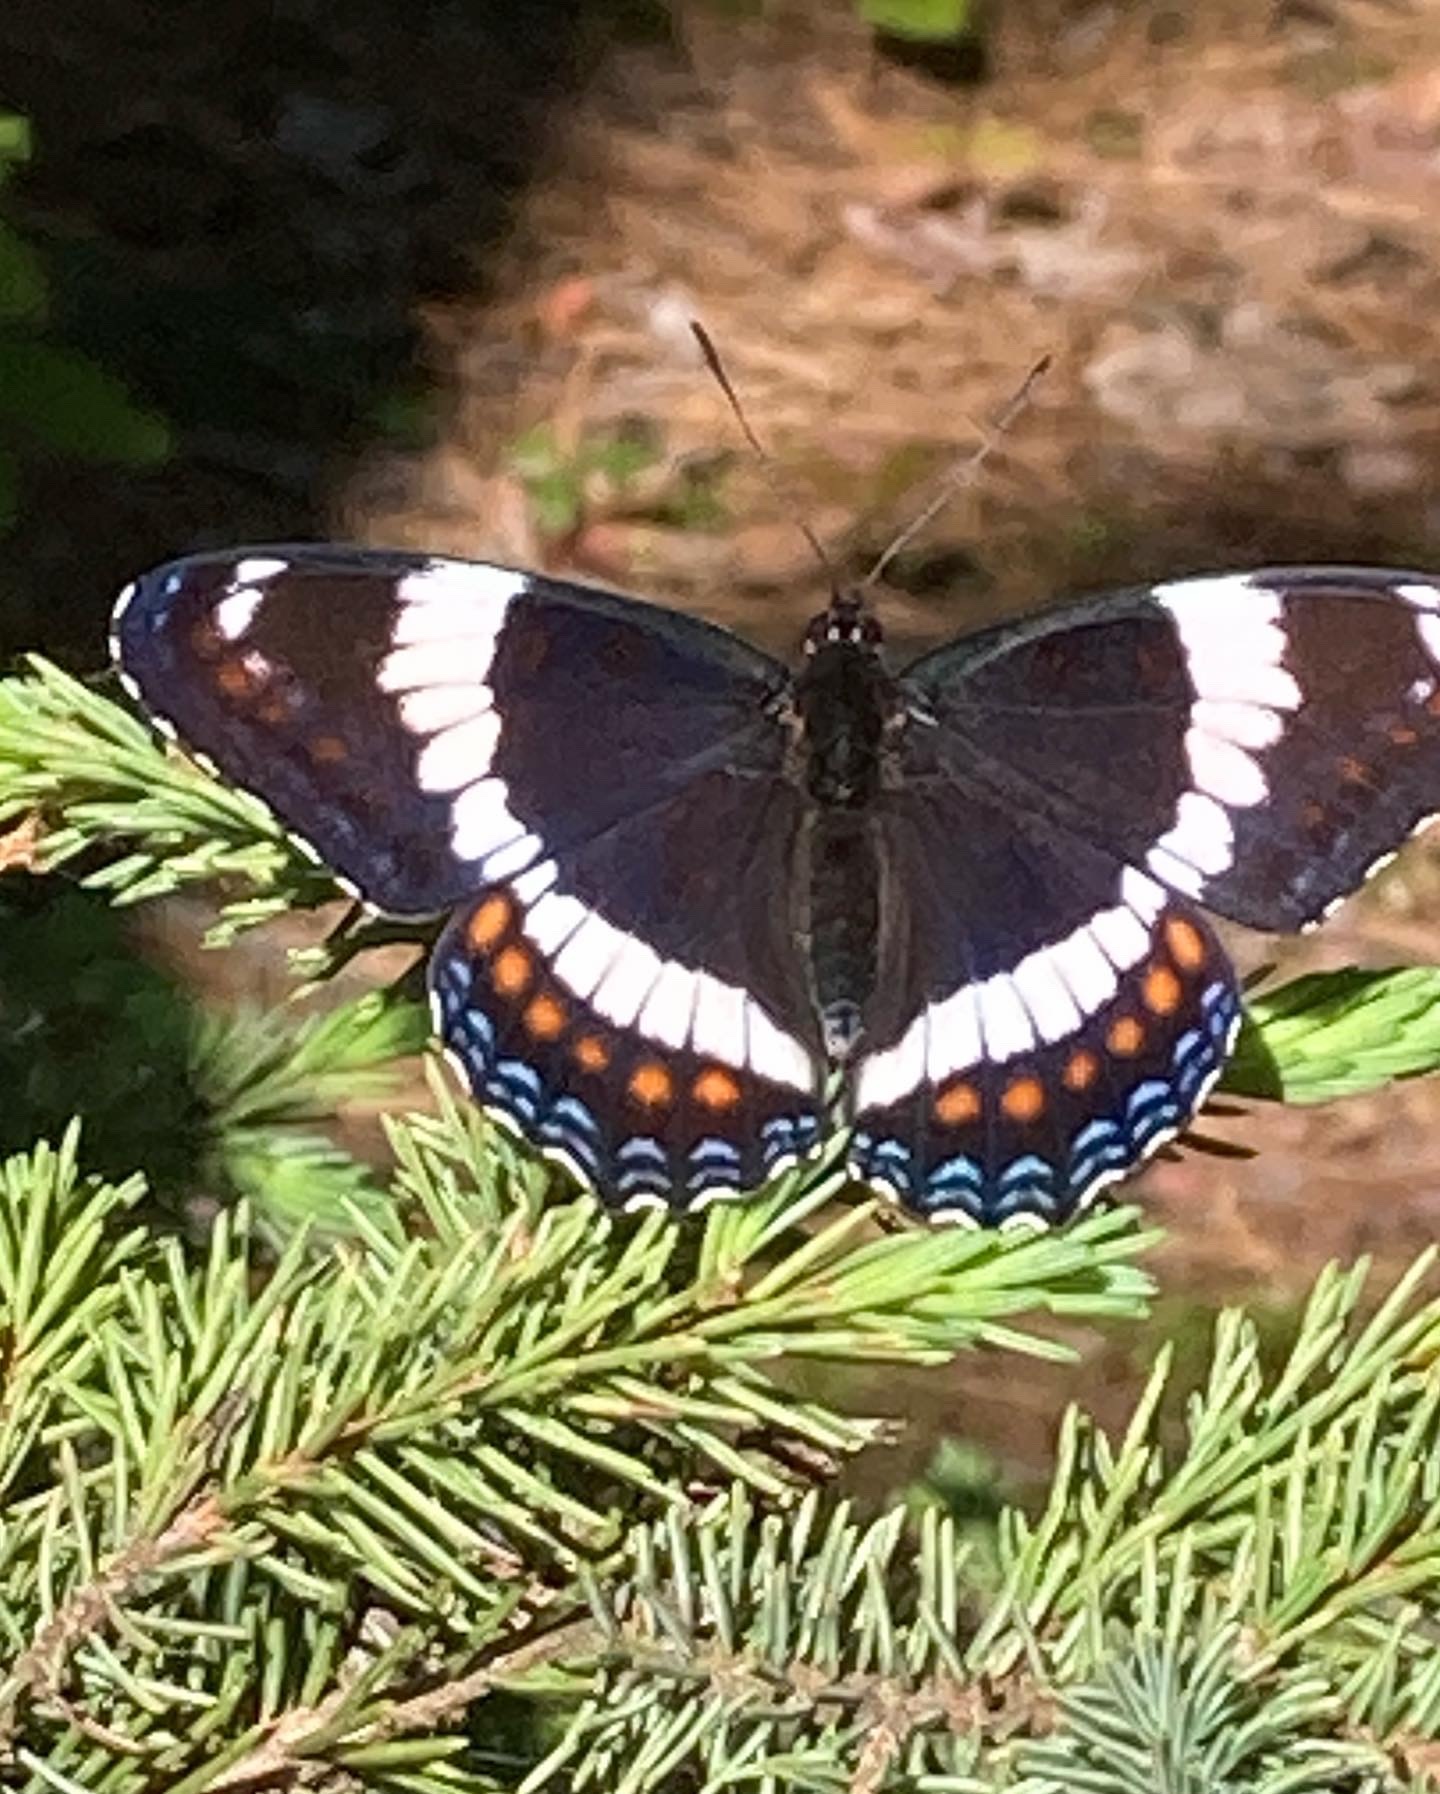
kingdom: Animalia
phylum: Arthropoda
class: Insecta
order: Lepidoptera
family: Nymphalidae
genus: Limenitis
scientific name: Limenitis arthemis
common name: Red-spotted admiral
